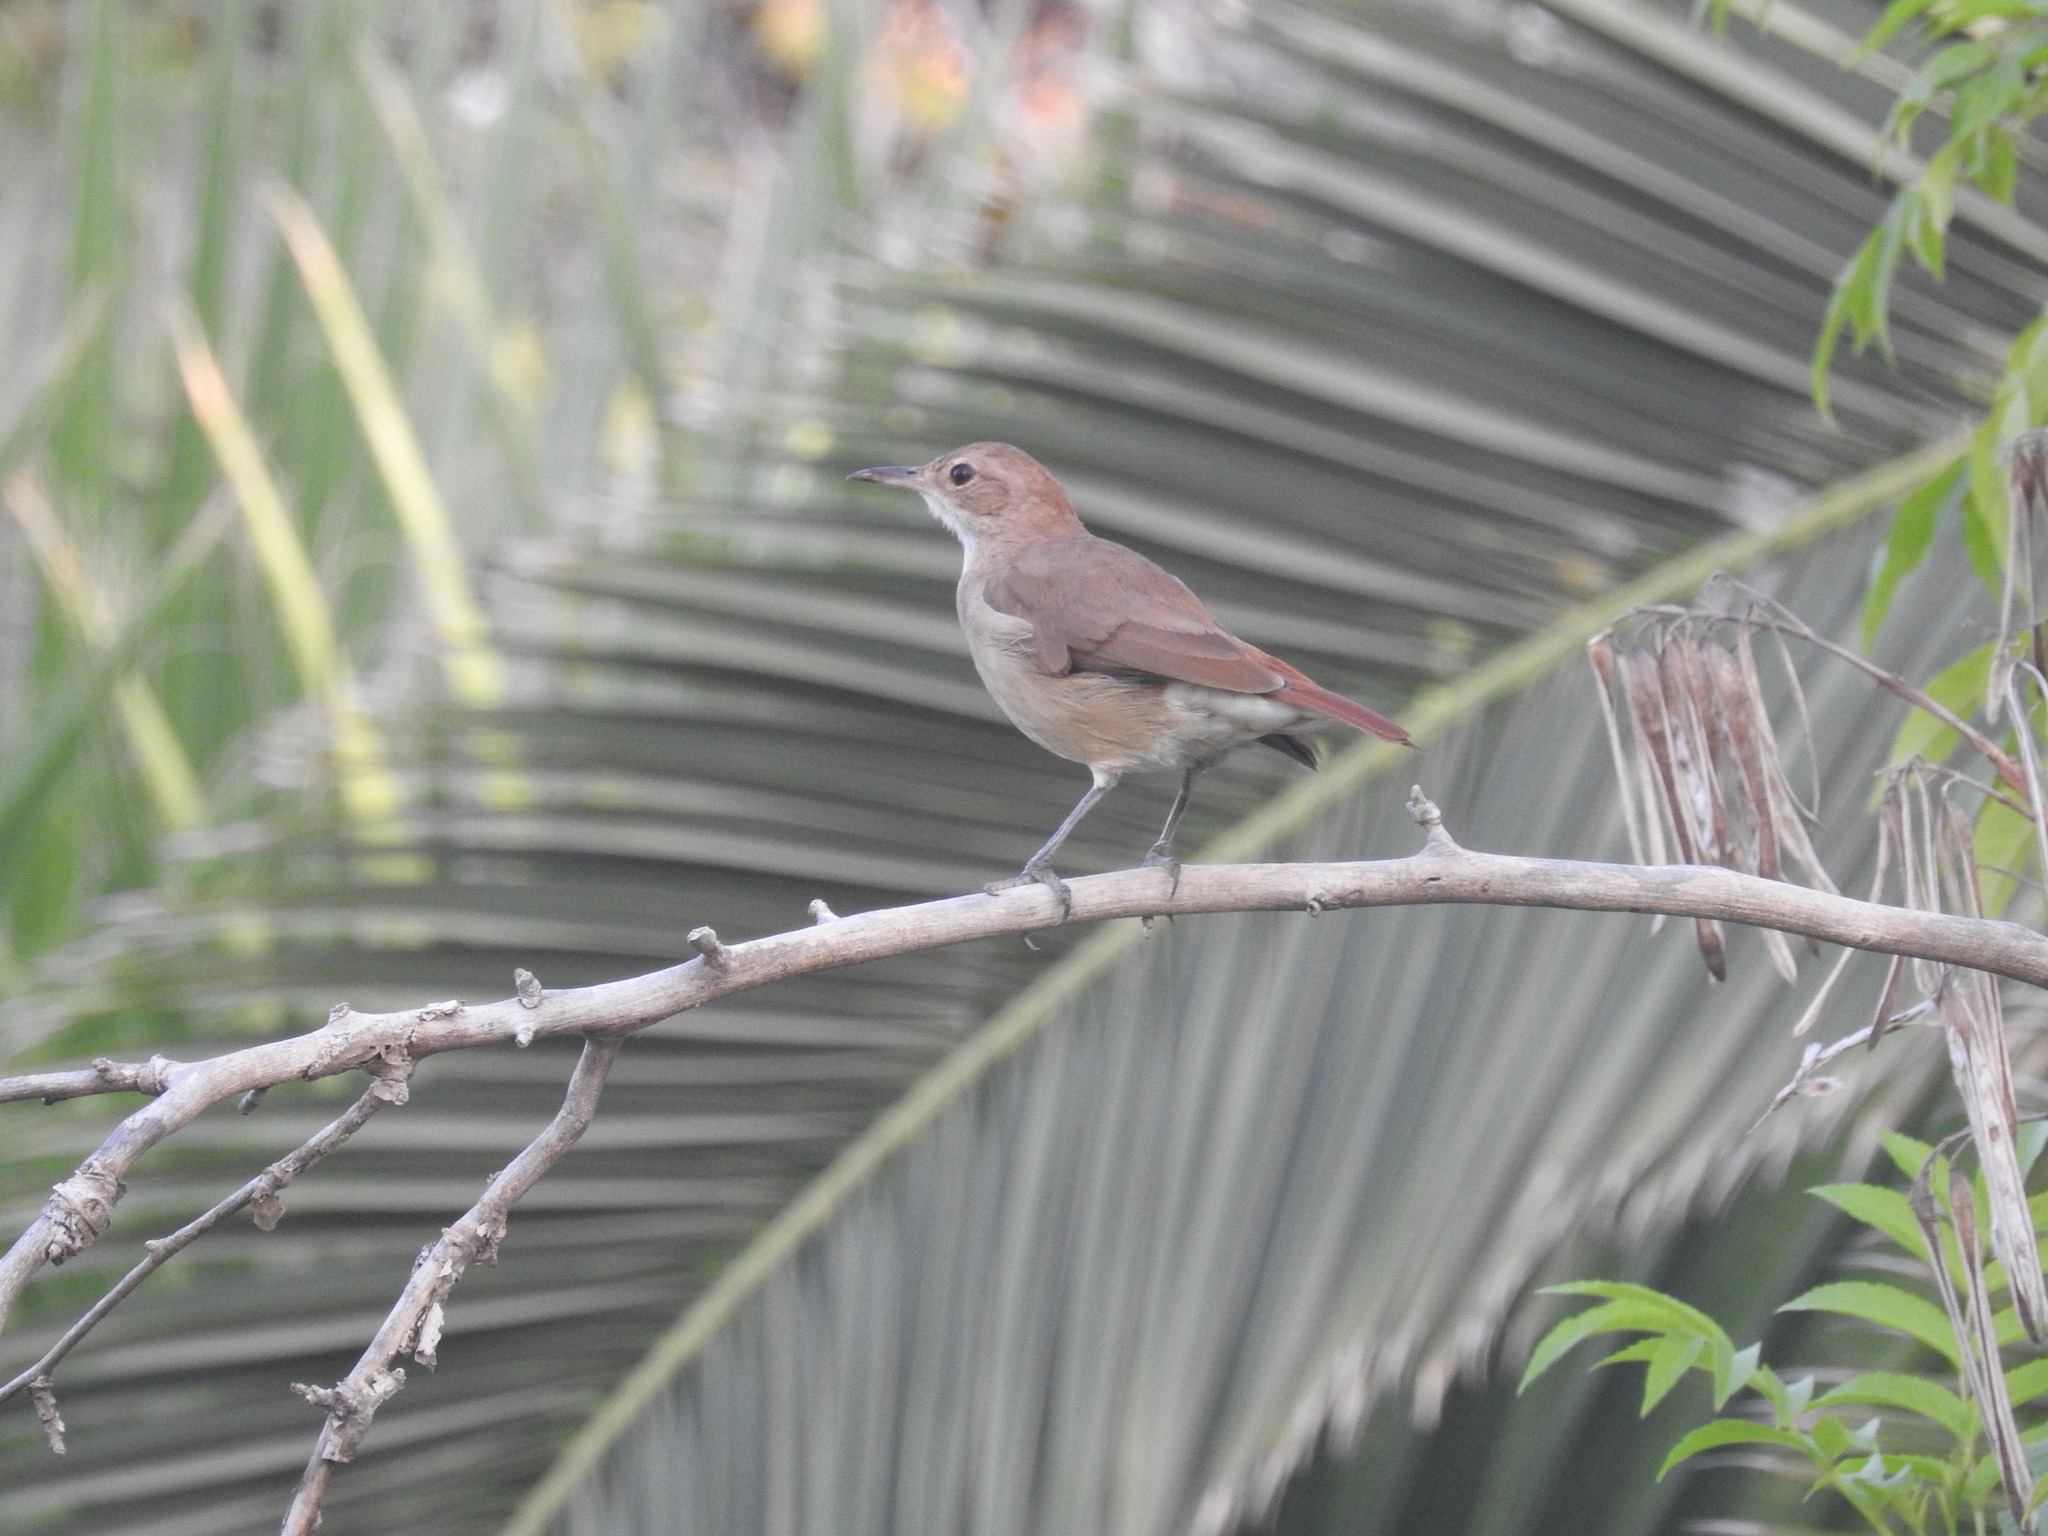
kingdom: Animalia
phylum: Chordata
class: Aves
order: Passeriformes
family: Furnariidae
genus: Furnarius
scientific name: Furnarius rufus
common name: Rufous hornero
